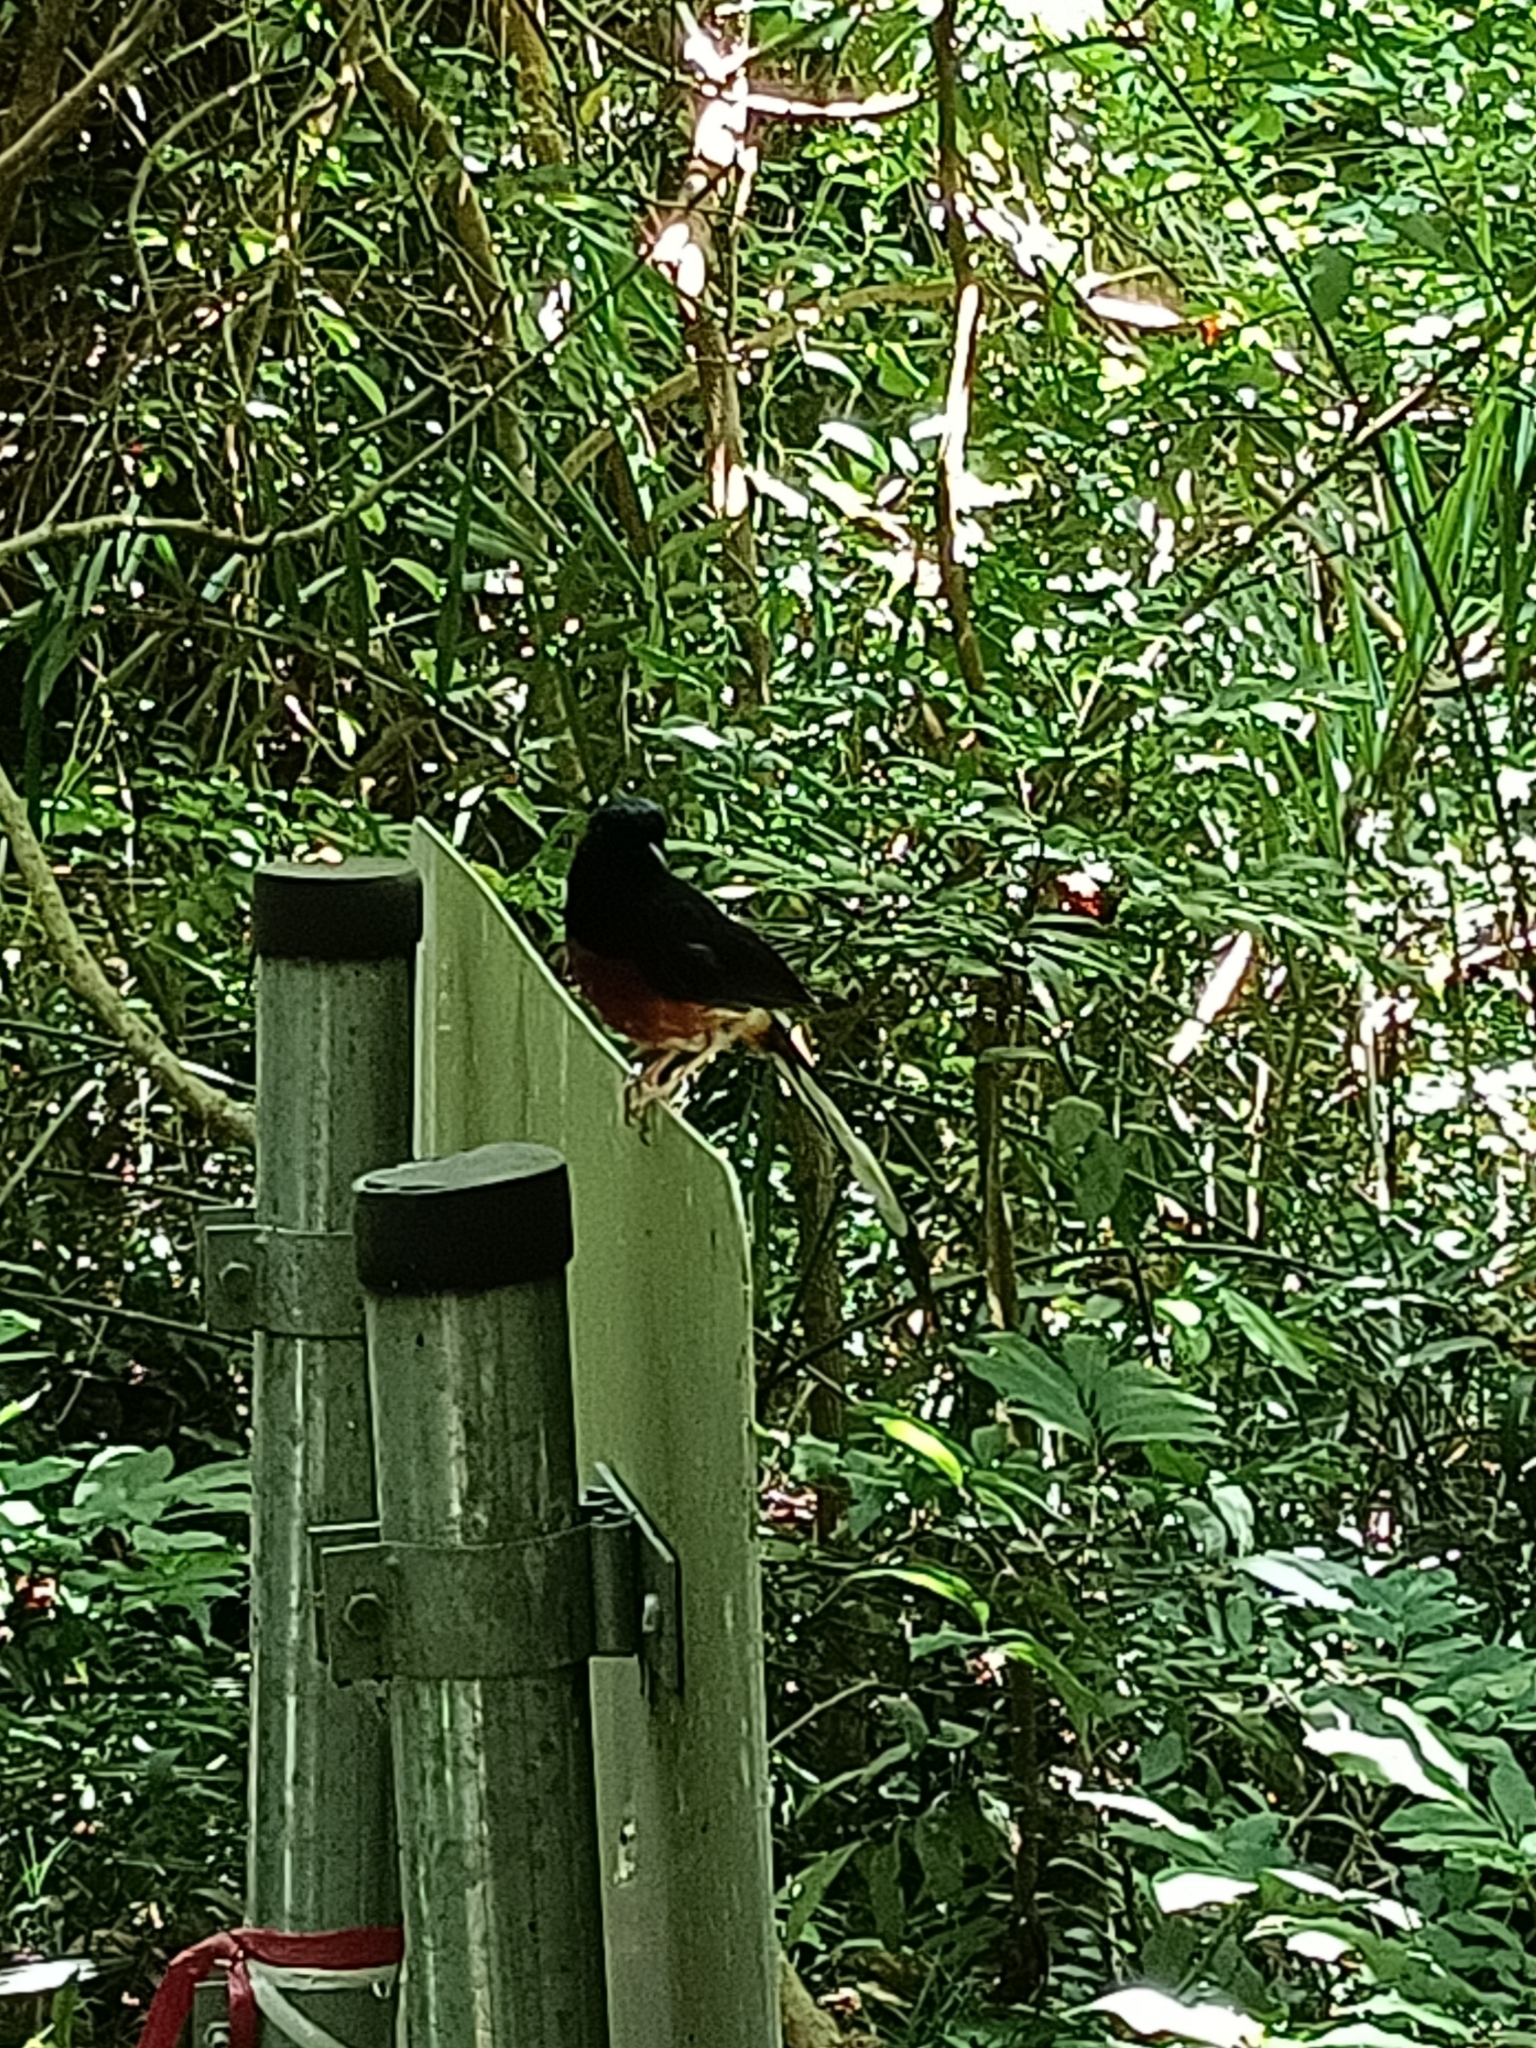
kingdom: Animalia
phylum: Chordata
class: Aves
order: Passeriformes
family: Muscicapidae
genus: Copsychus
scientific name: Copsychus malabaricus
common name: White-rumped shama
